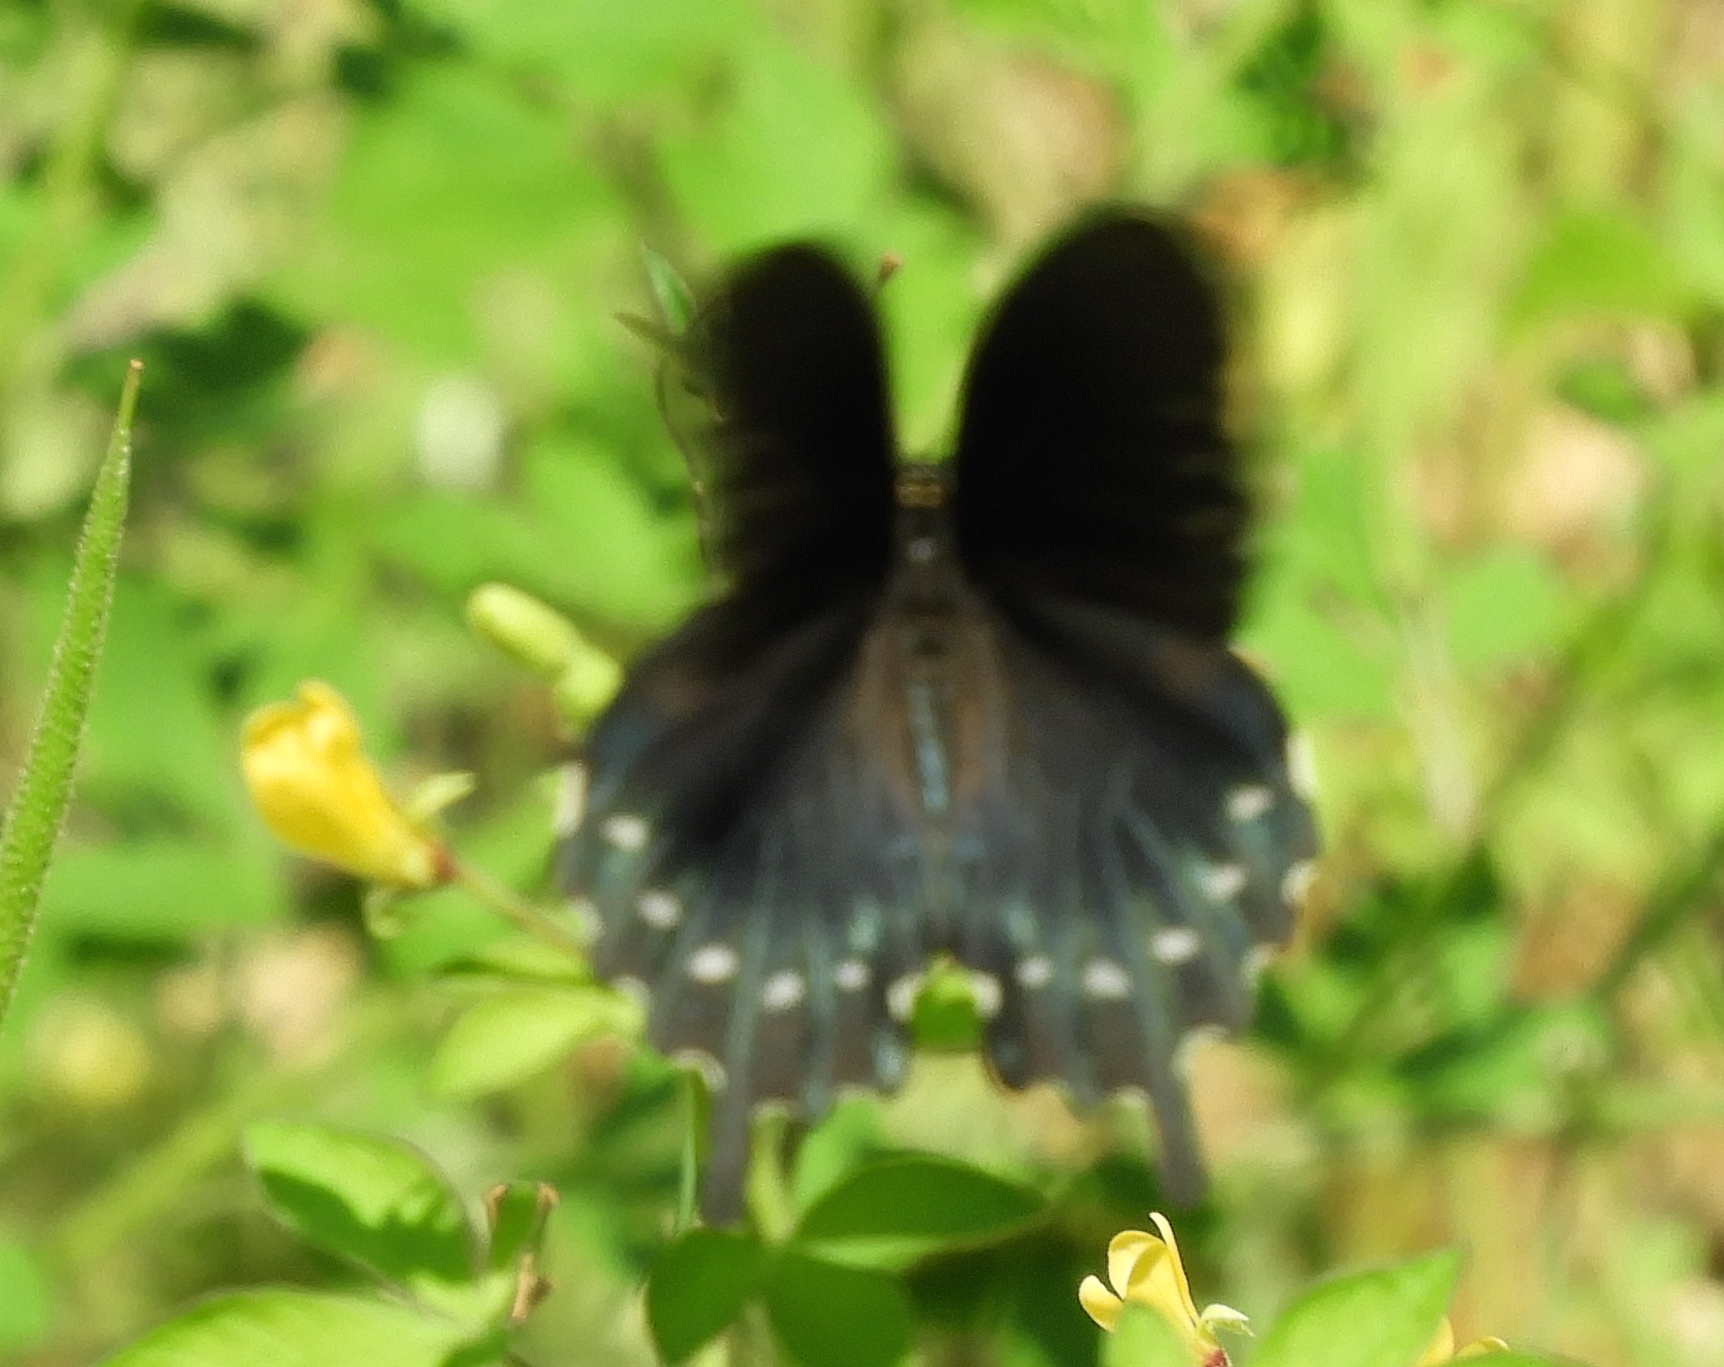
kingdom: Animalia
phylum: Arthropoda
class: Insecta
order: Lepidoptera
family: Papilionidae
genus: Battus
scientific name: Battus philenor
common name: Pipevine swallowtail
